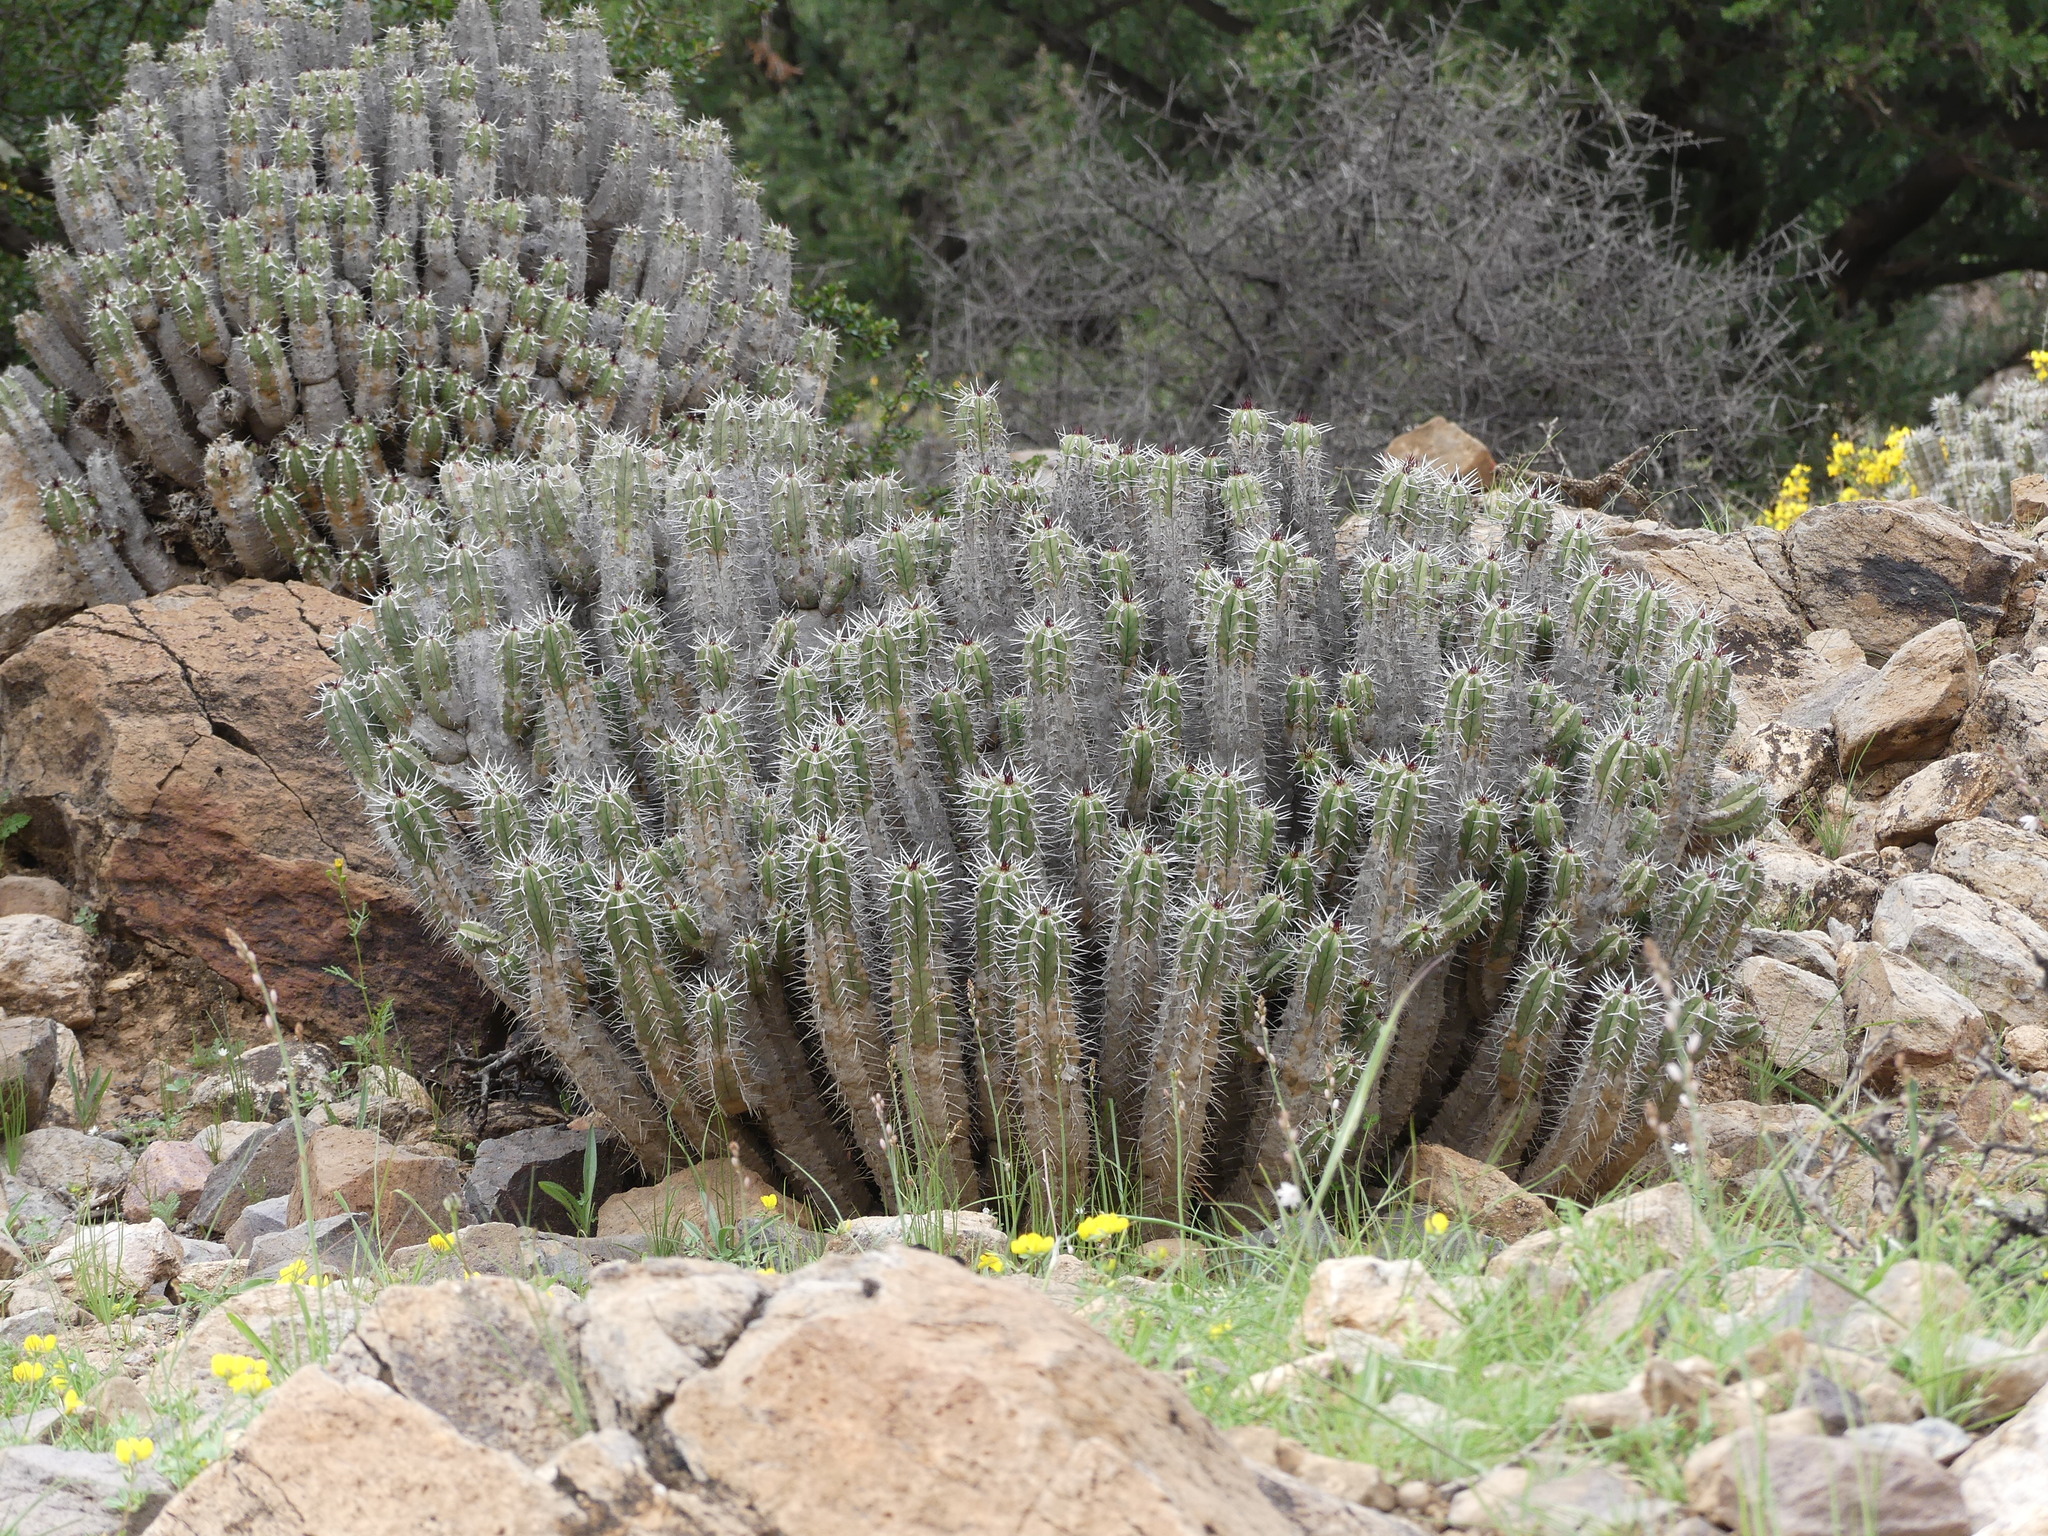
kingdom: Plantae
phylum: Tracheophyta
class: Magnoliopsida
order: Malpighiales
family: Euphorbiaceae
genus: Euphorbia
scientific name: Euphorbia officinarum
